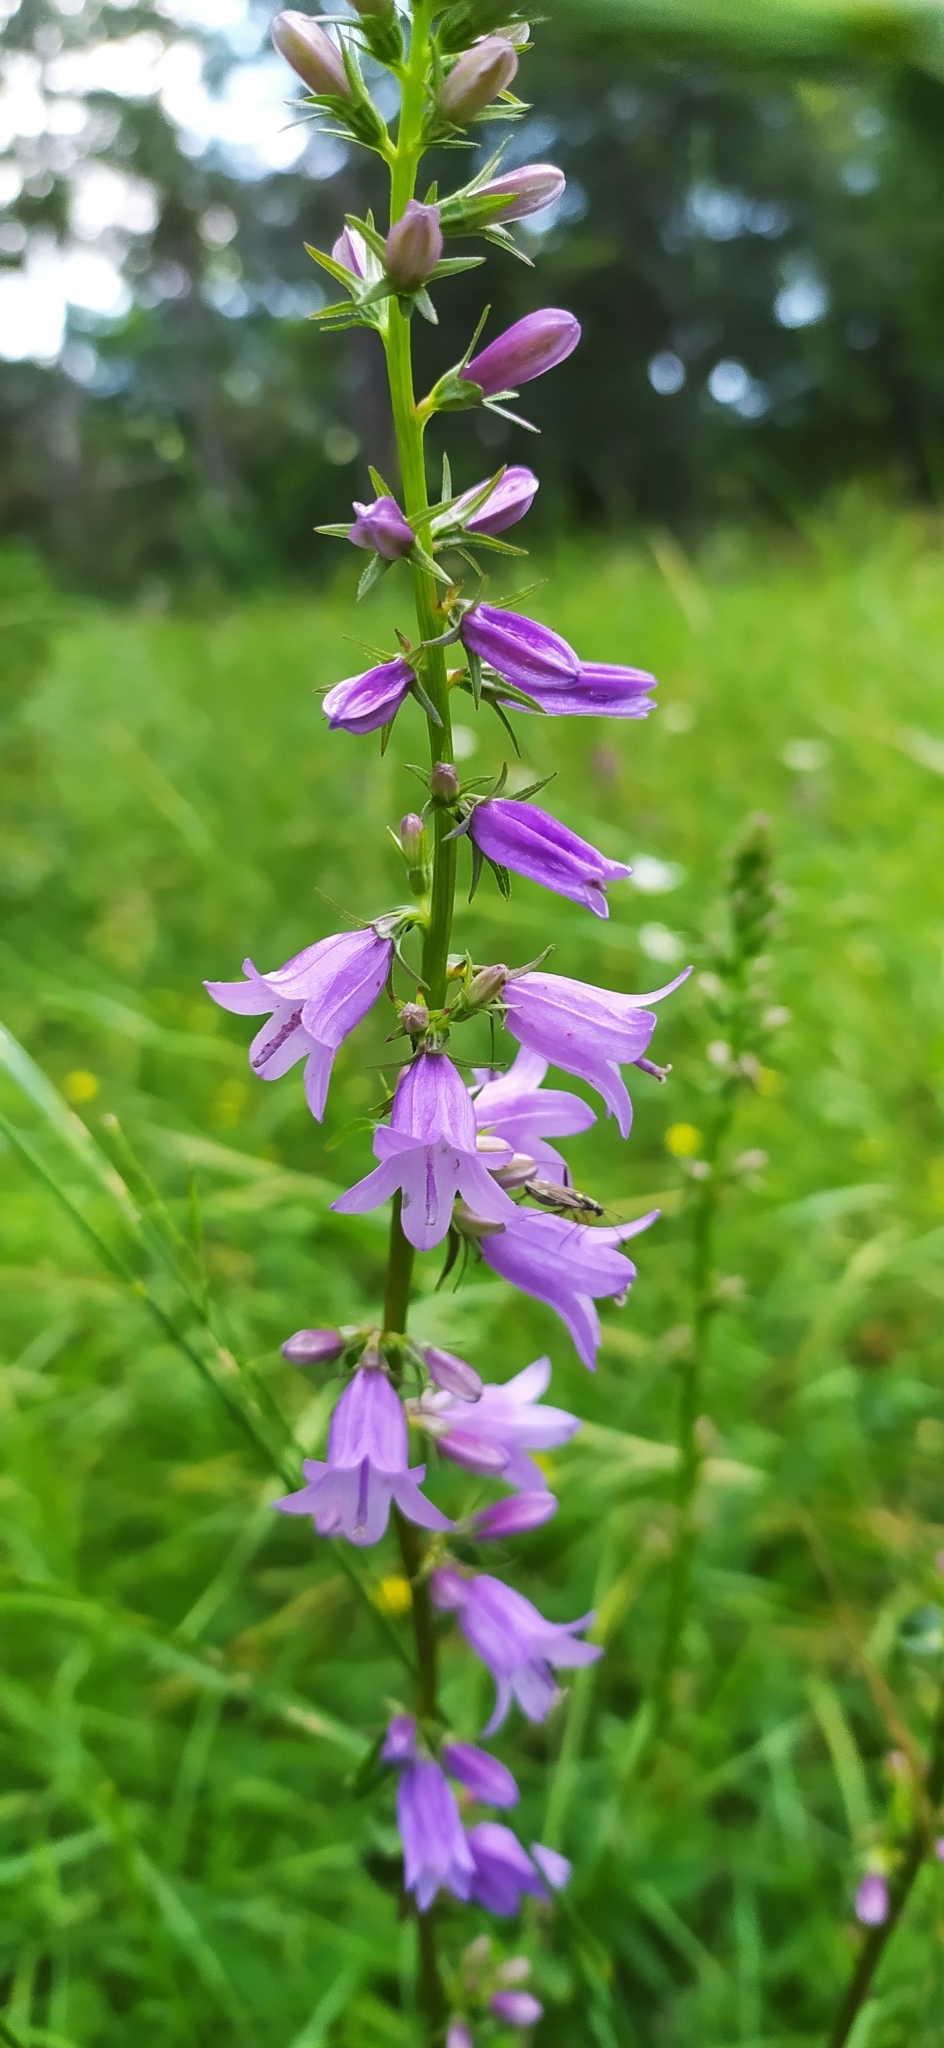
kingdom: Plantae
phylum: Tracheophyta
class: Magnoliopsida
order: Asterales
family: Campanulaceae
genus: Campanula
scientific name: Campanula bononiensis
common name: Pale bellflower
